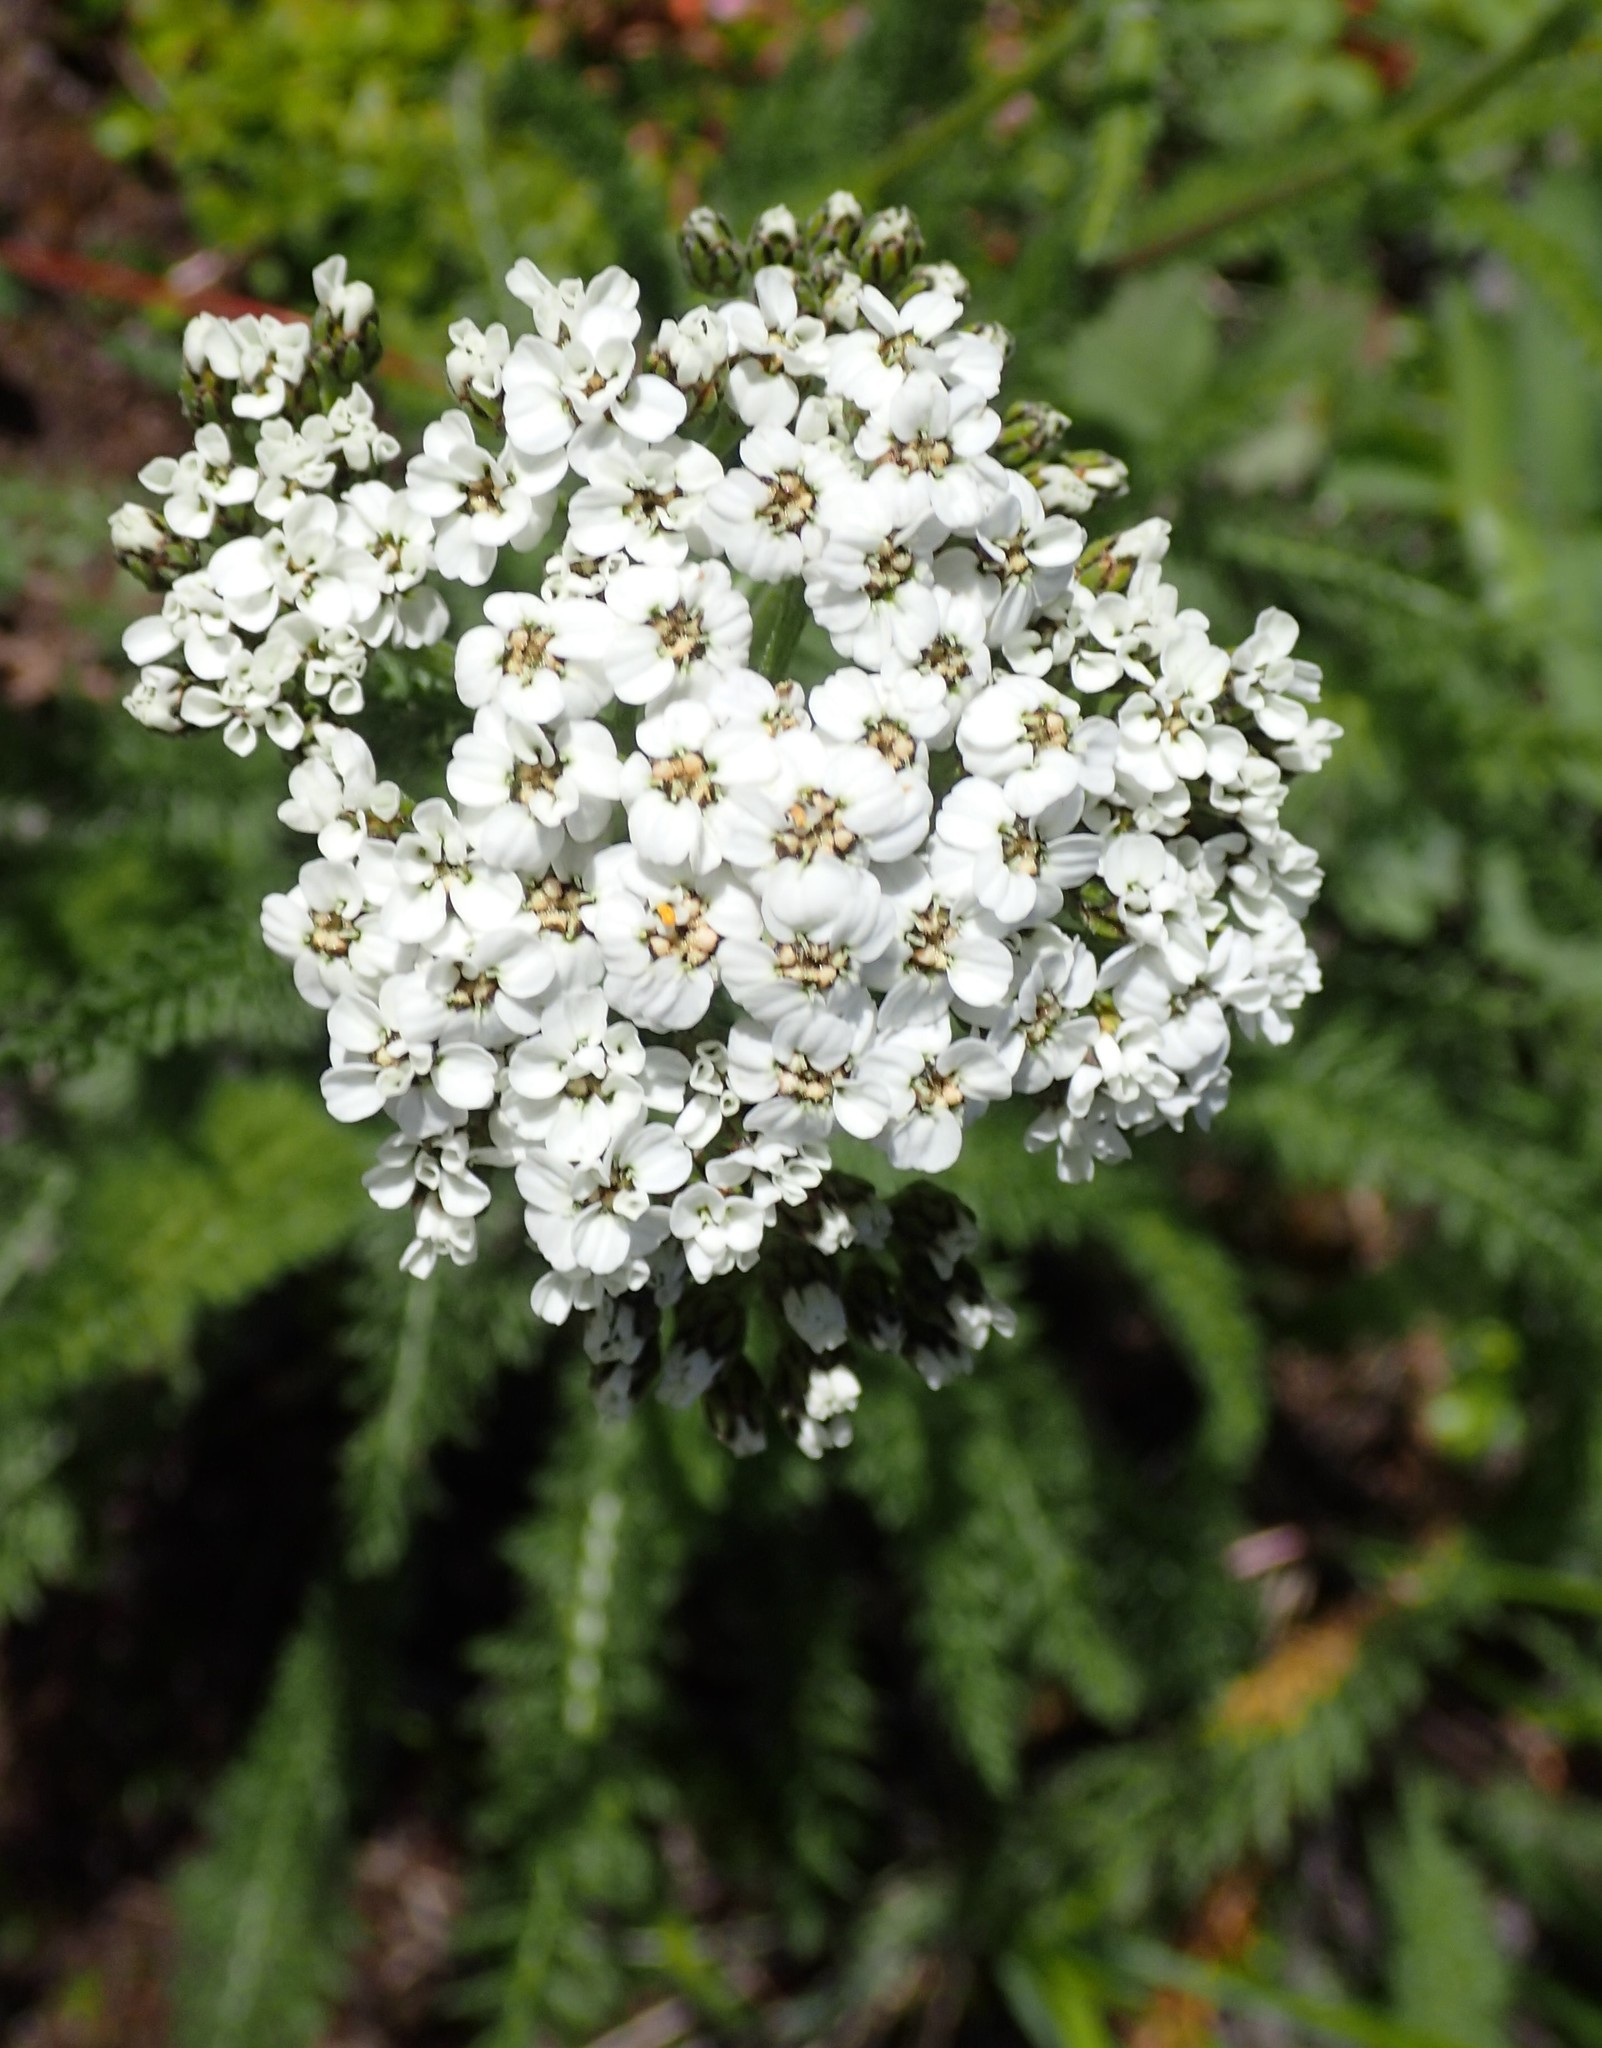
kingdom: Plantae
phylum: Tracheophyta
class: Magnoliopsida
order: Asterales
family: Asteraceae
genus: Achillea
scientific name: Achillea millefolium
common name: Yarrow
